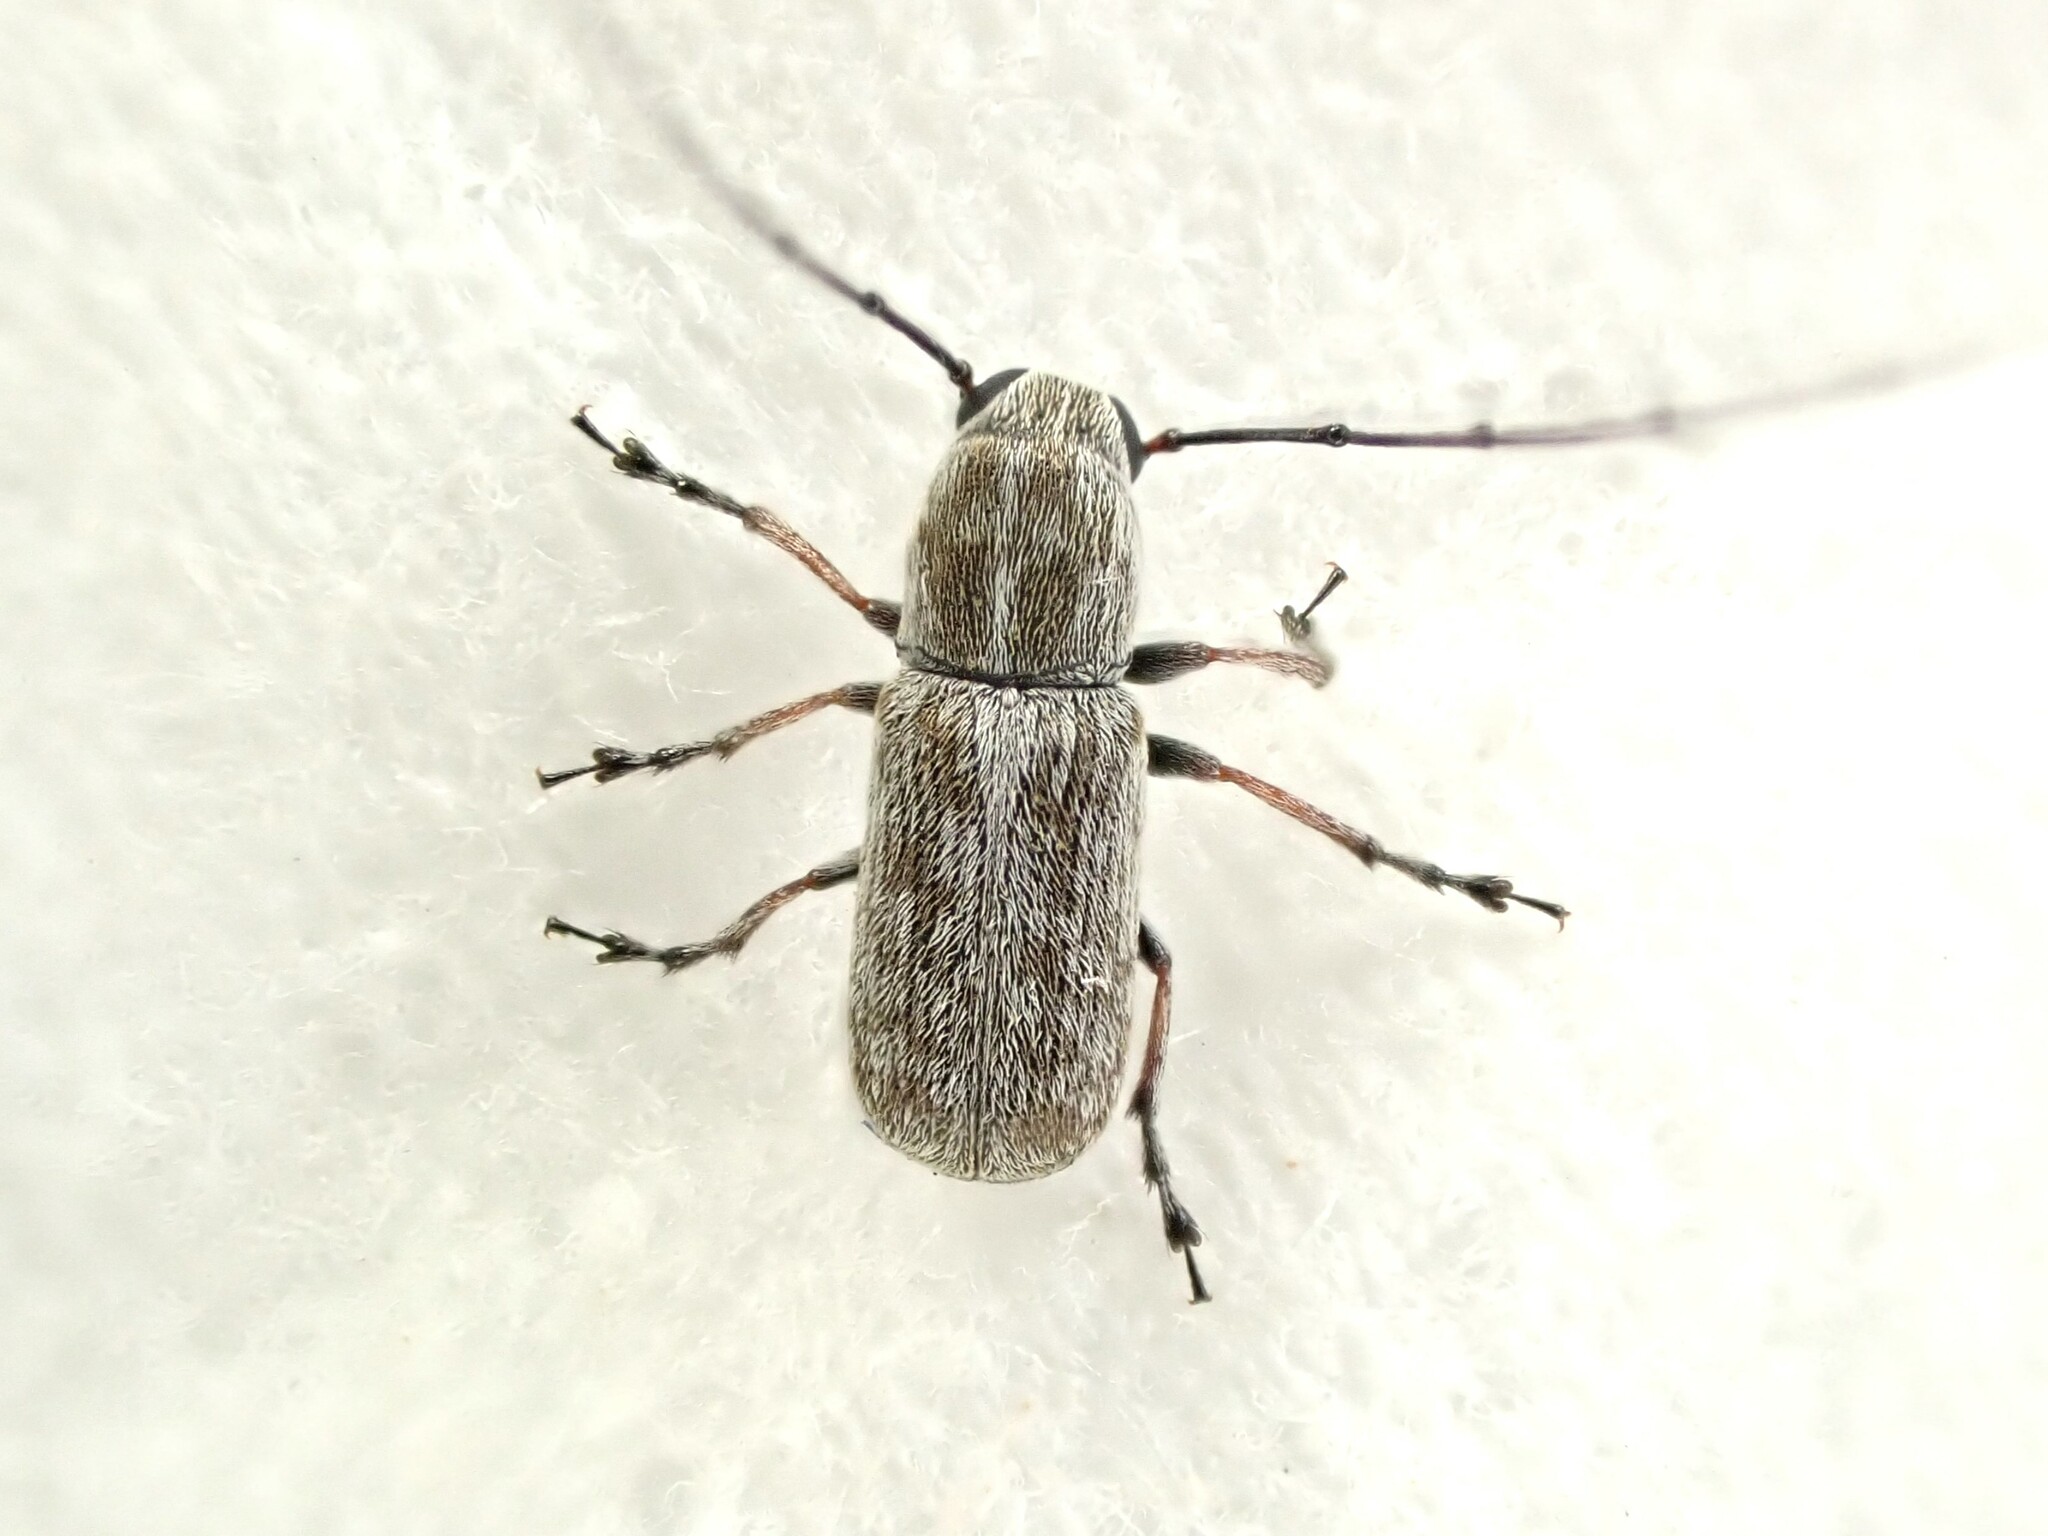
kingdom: Animalia
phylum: Arthropoda
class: Insecta
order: Coleoptera
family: Anthribidae
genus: Euciodes
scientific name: Euciodes suturalis
